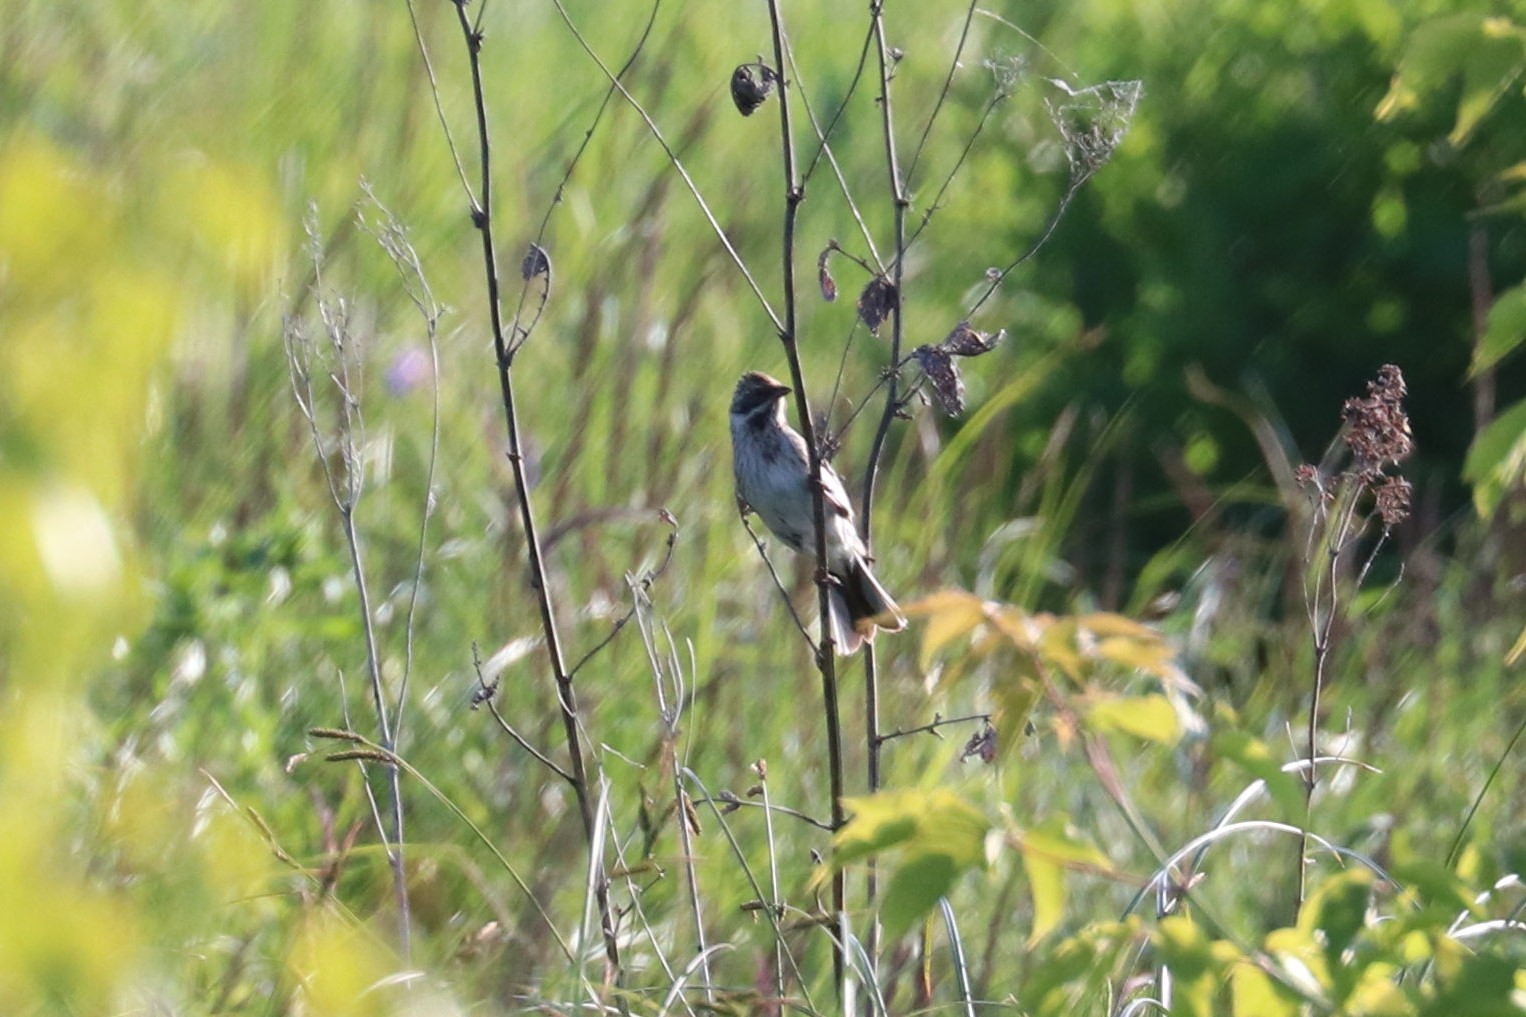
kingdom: Animalia
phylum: Chordata
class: Aves
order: Passeriformes
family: Emberizidae
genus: Emberiza
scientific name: Emberiza schoeniclus
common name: Reed bunting
